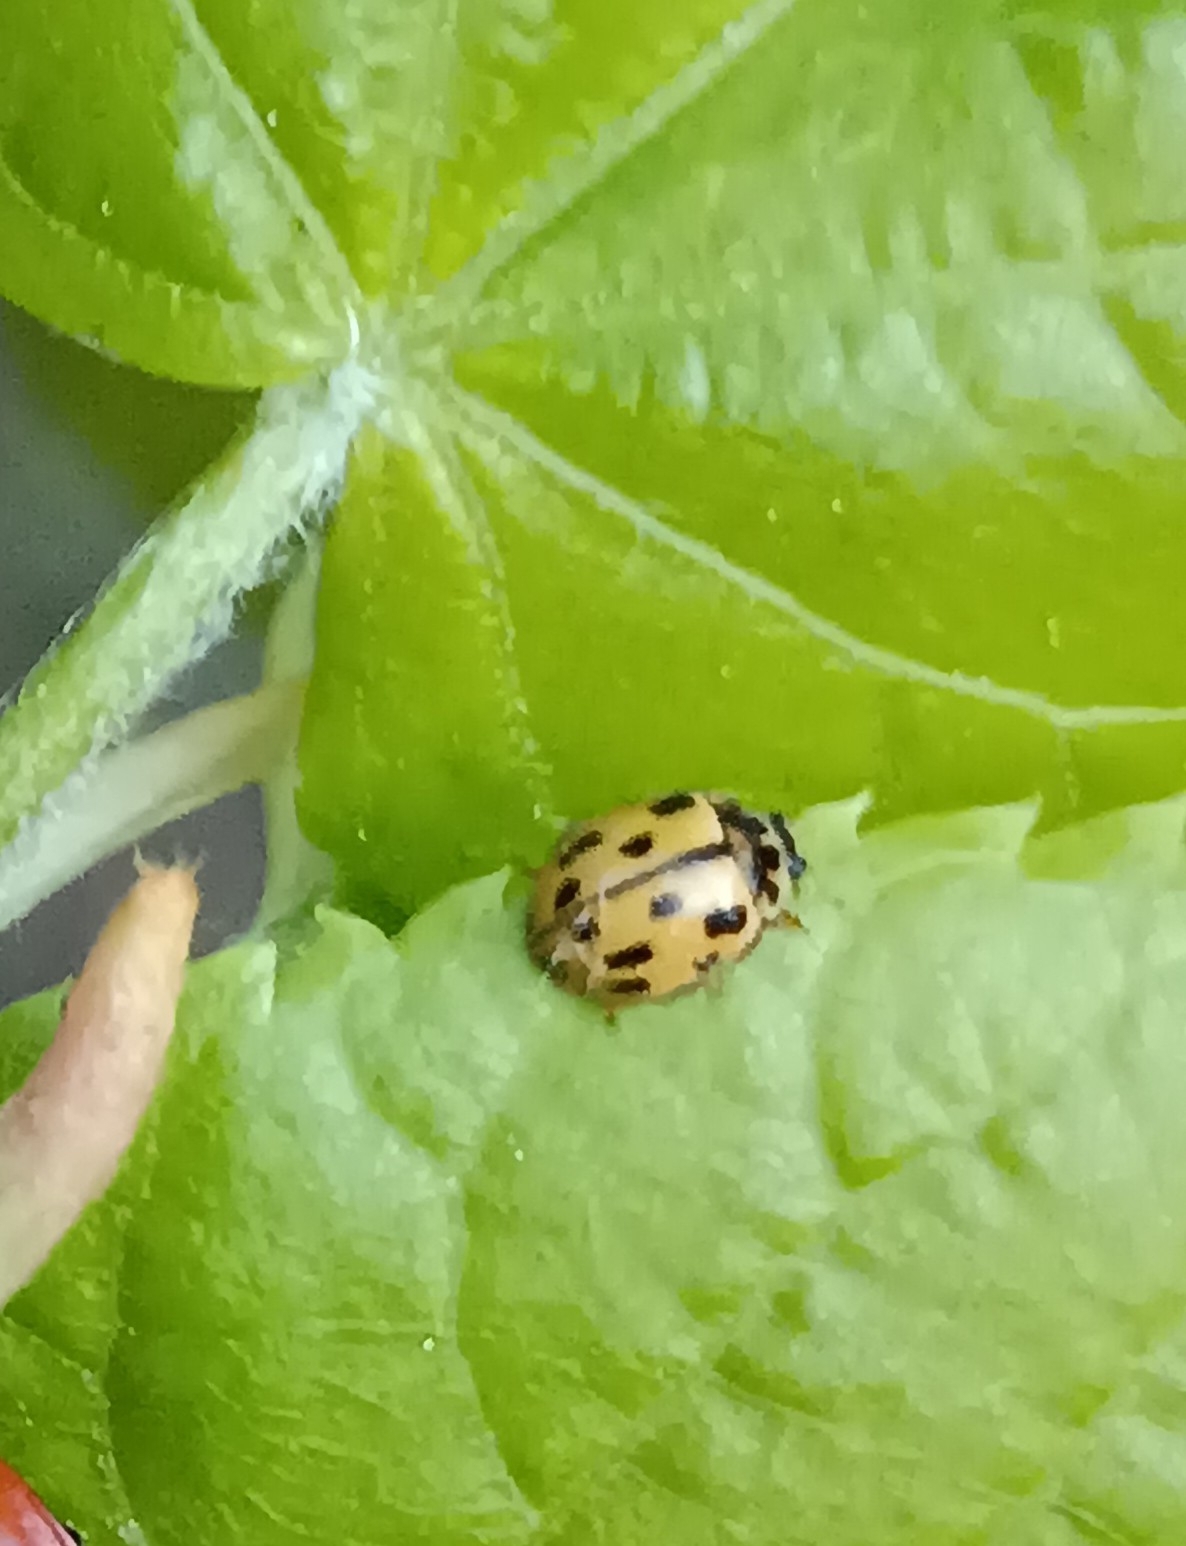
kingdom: Animalia
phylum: Arthropoda
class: Insecta
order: Coleoptera
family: Coccinellidae
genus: Propylaea
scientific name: Propylaea quatuordecimpunctata
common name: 14-spotted ladybird beetle
